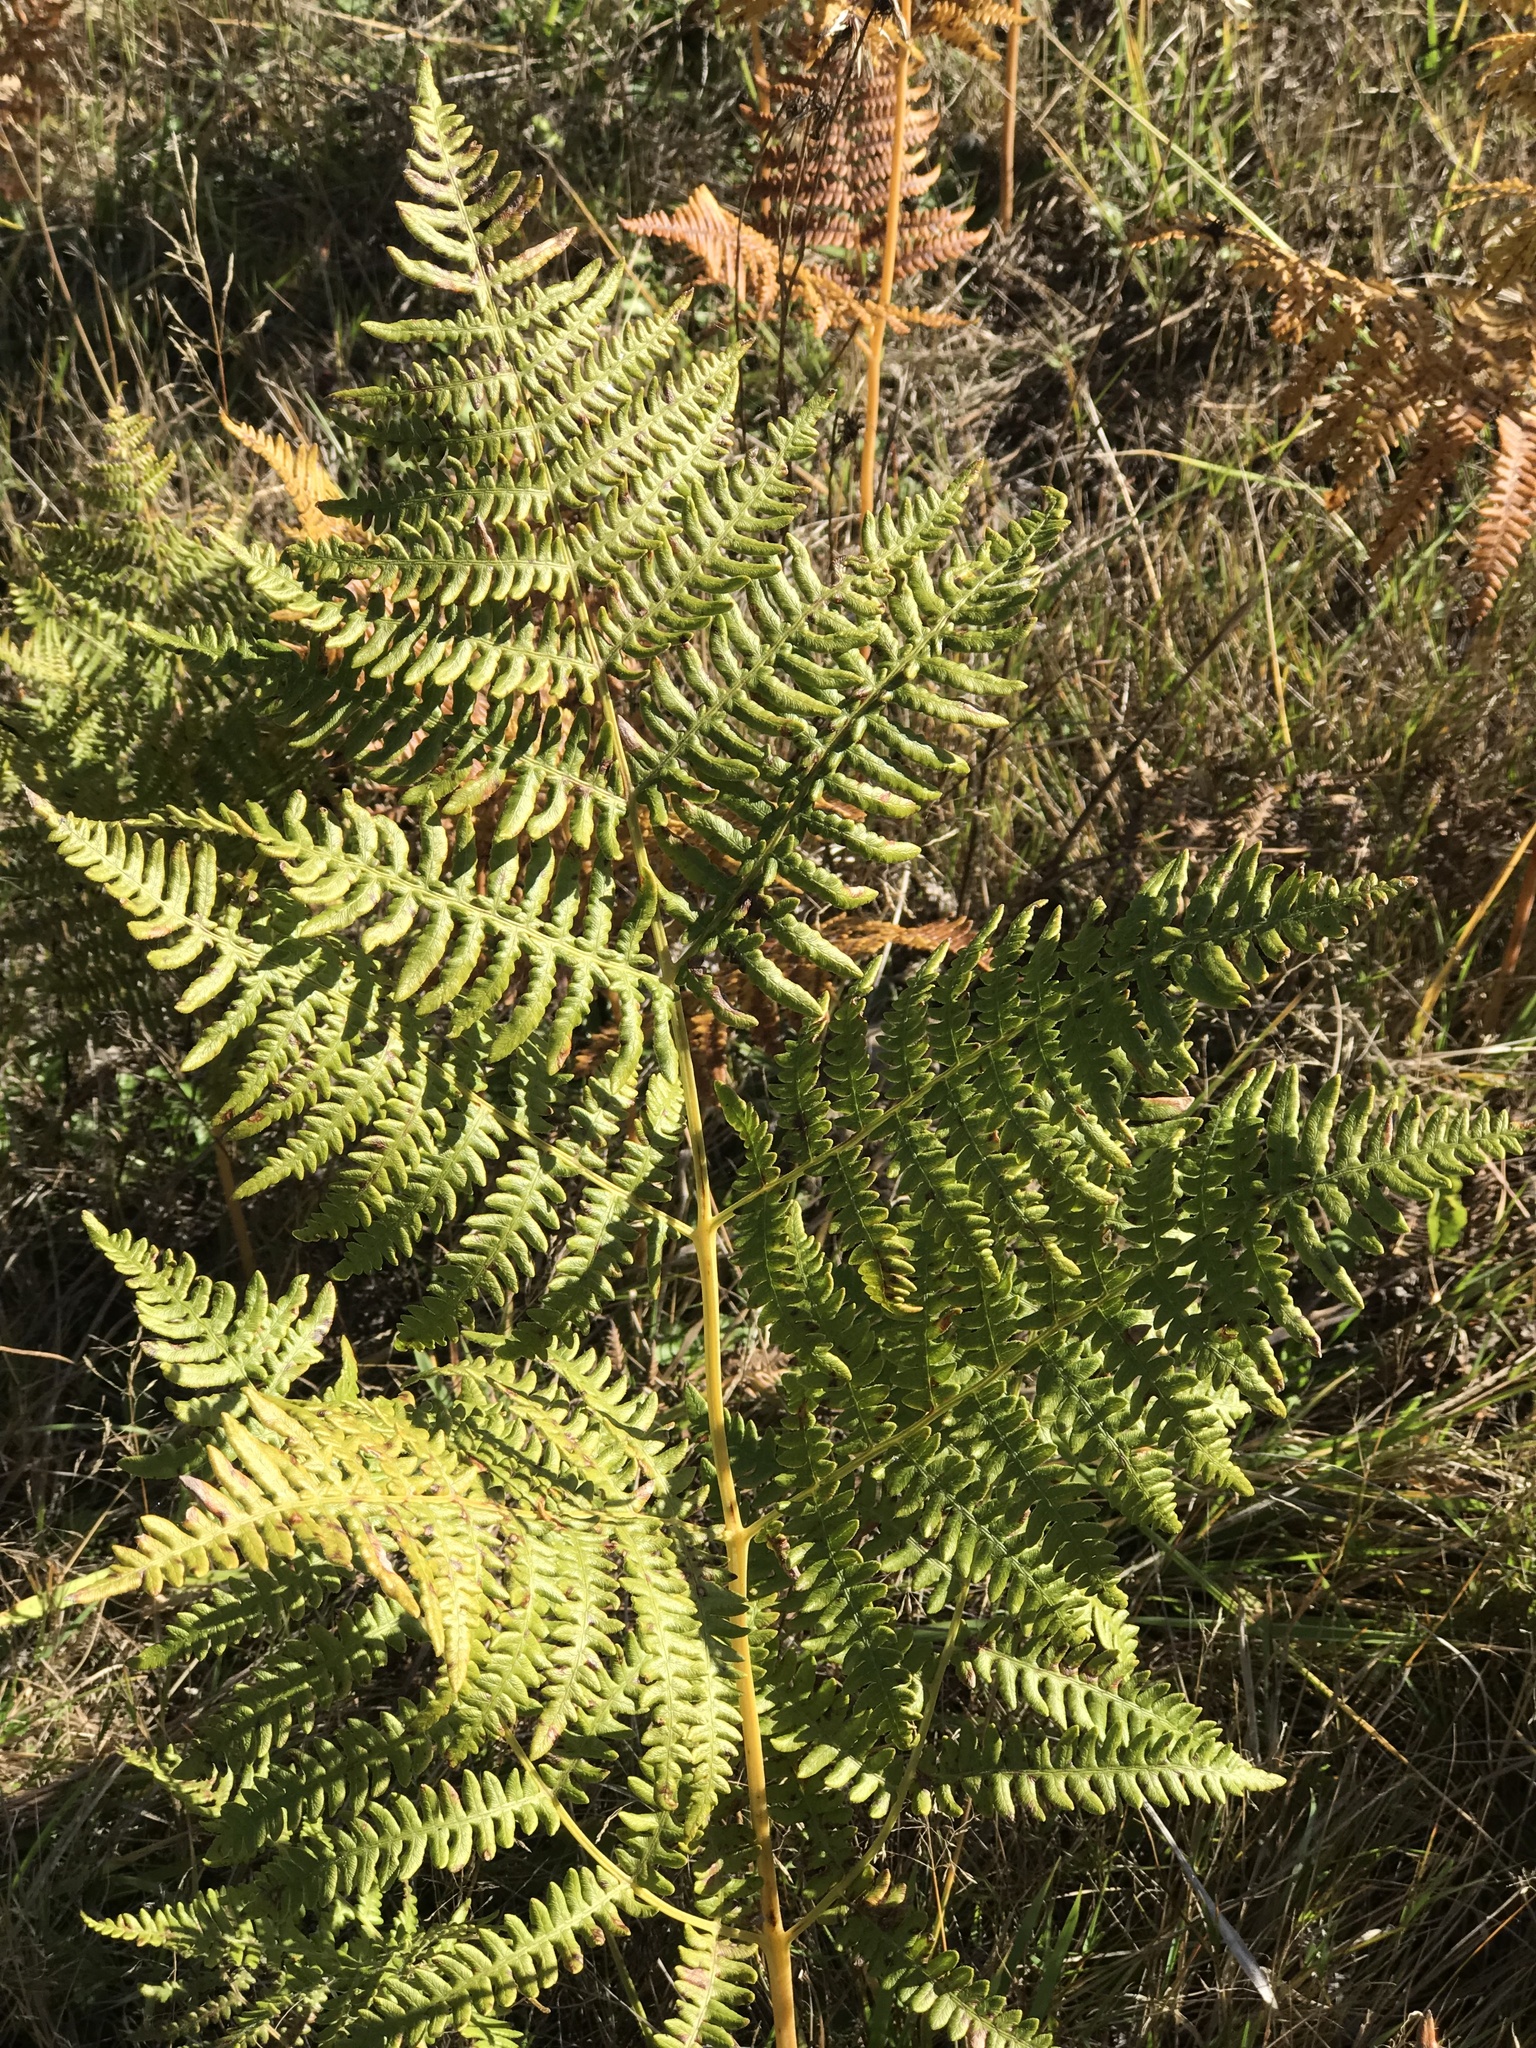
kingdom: Plantae
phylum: Tracheophyta
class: Polypodiopsida
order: Polypodiales
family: Dennstaedtiaceae
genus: Pteridium
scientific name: Pteridium aquilinum
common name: Bracken
